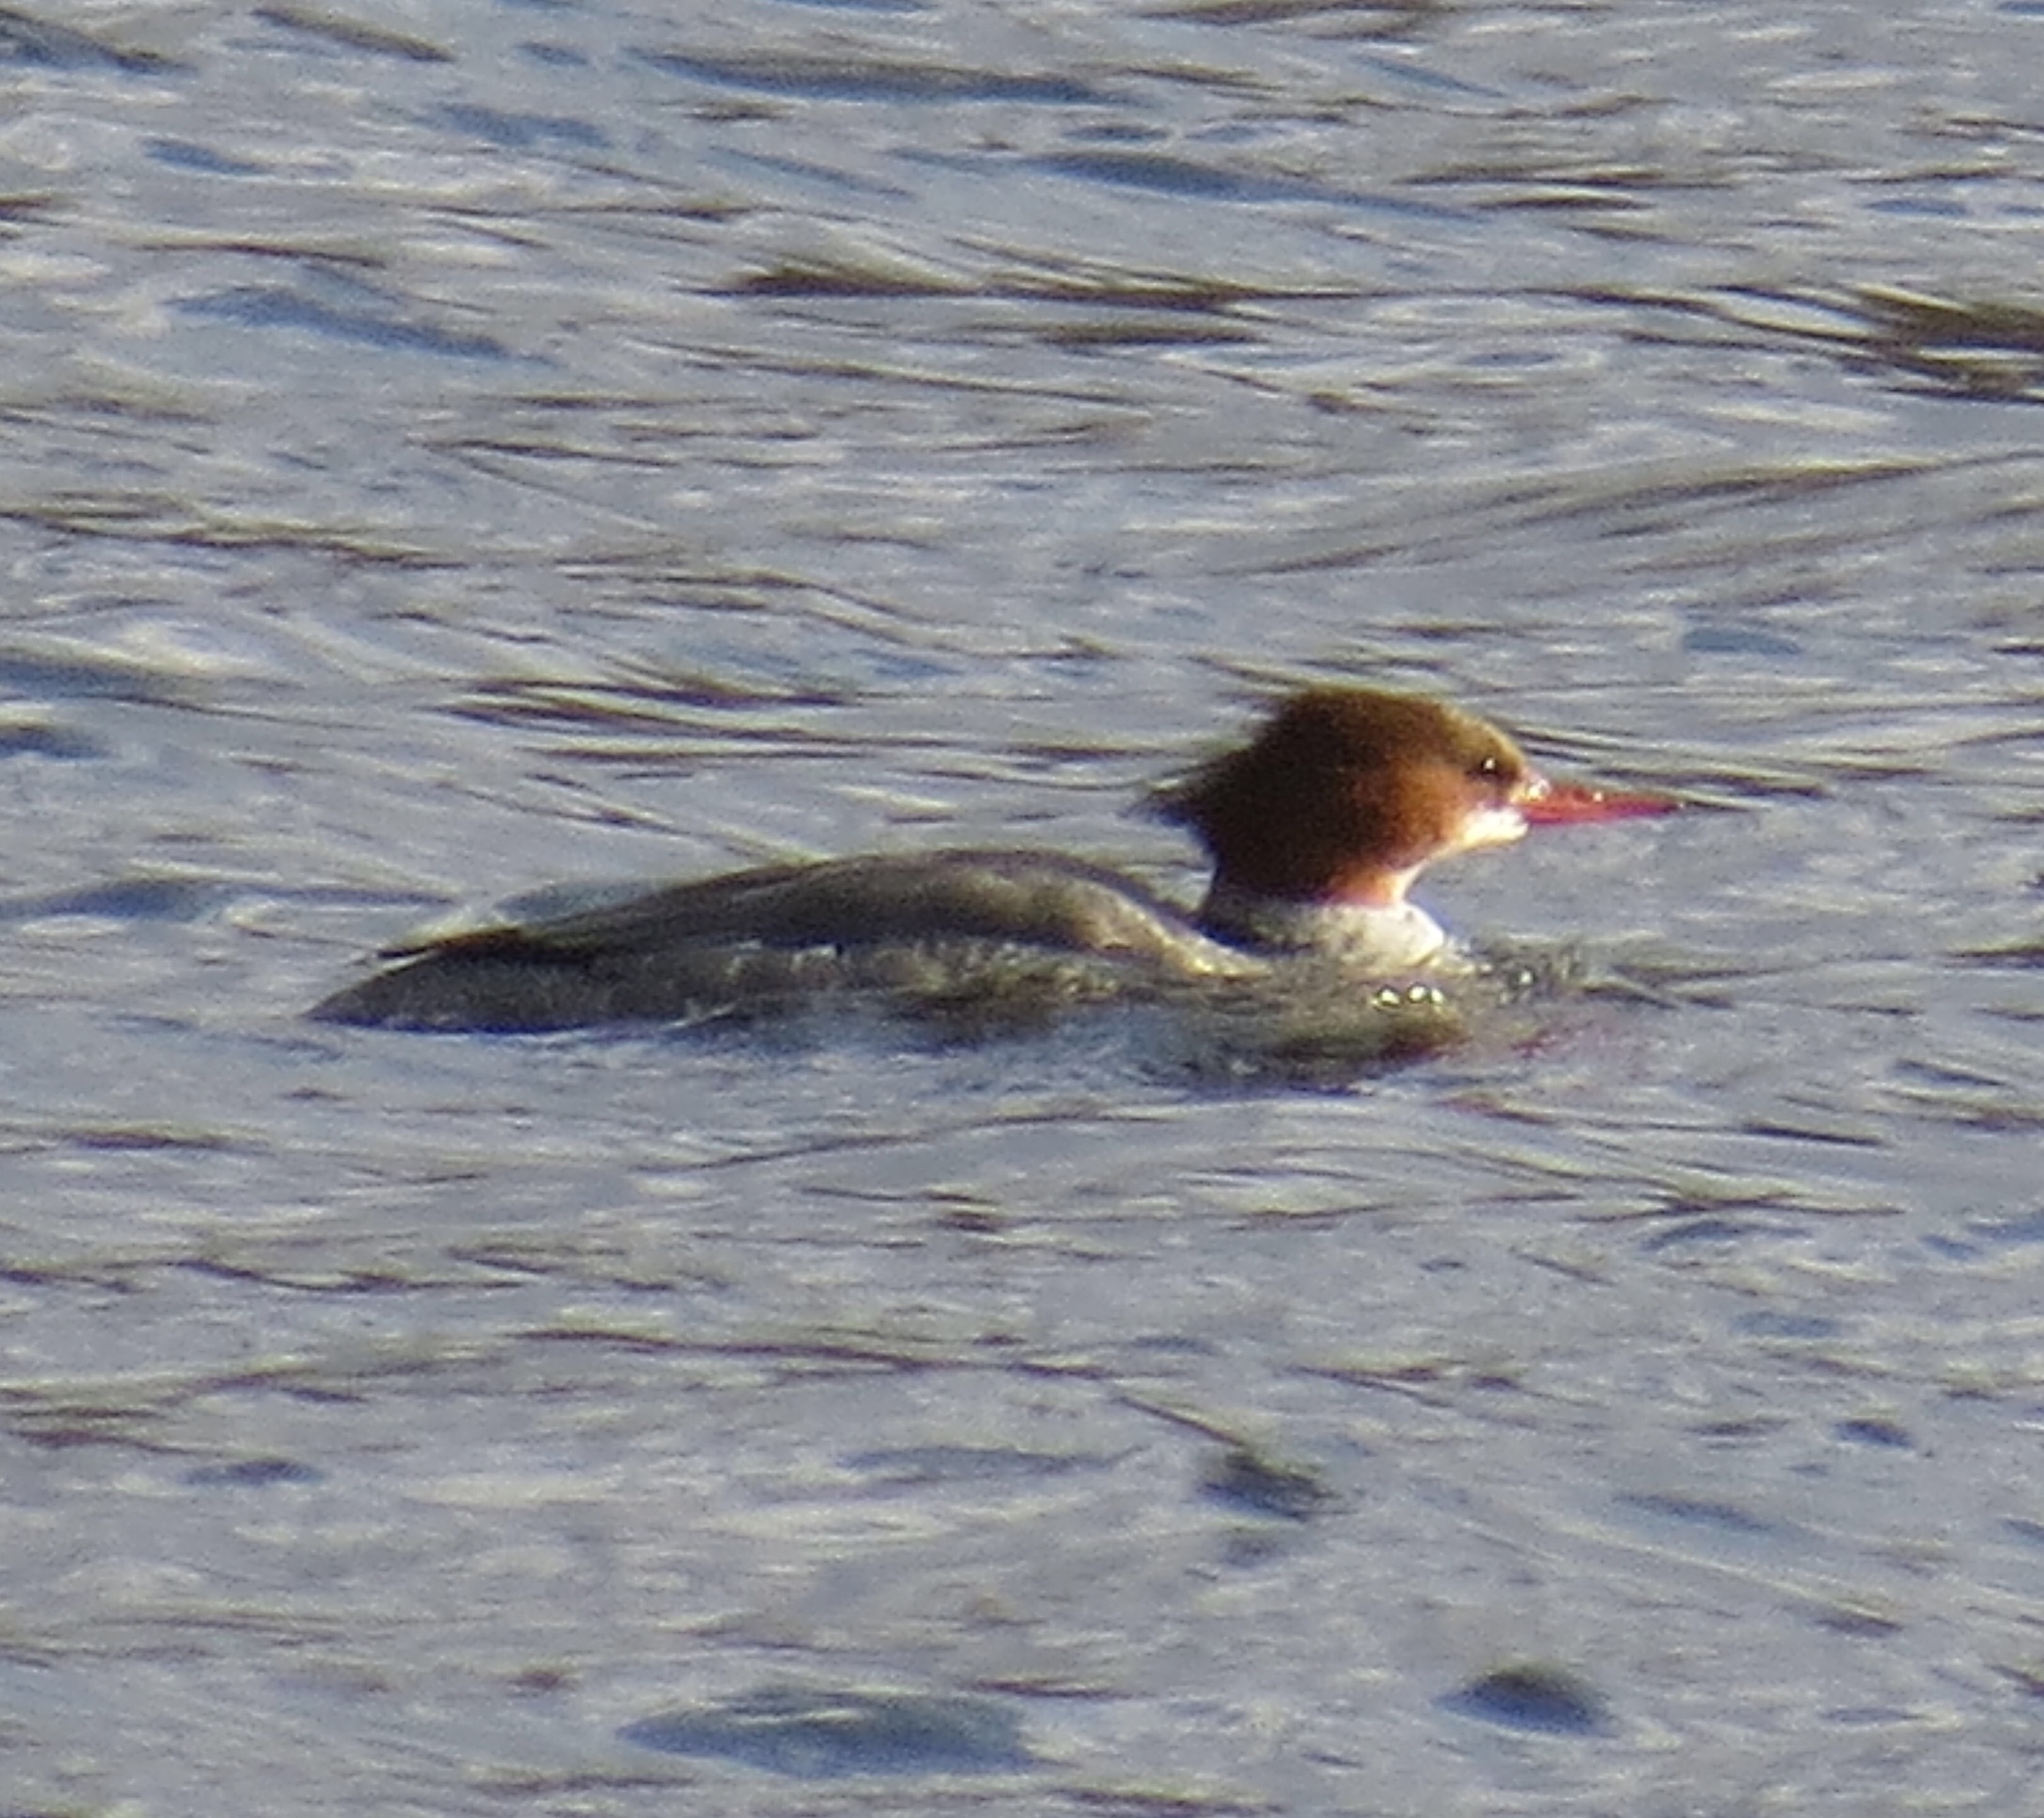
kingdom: Animalia
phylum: Chordata
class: Aves
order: Anseriformes
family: Anatidae
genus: Mergus
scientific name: Mergus merganser
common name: Common merganser
